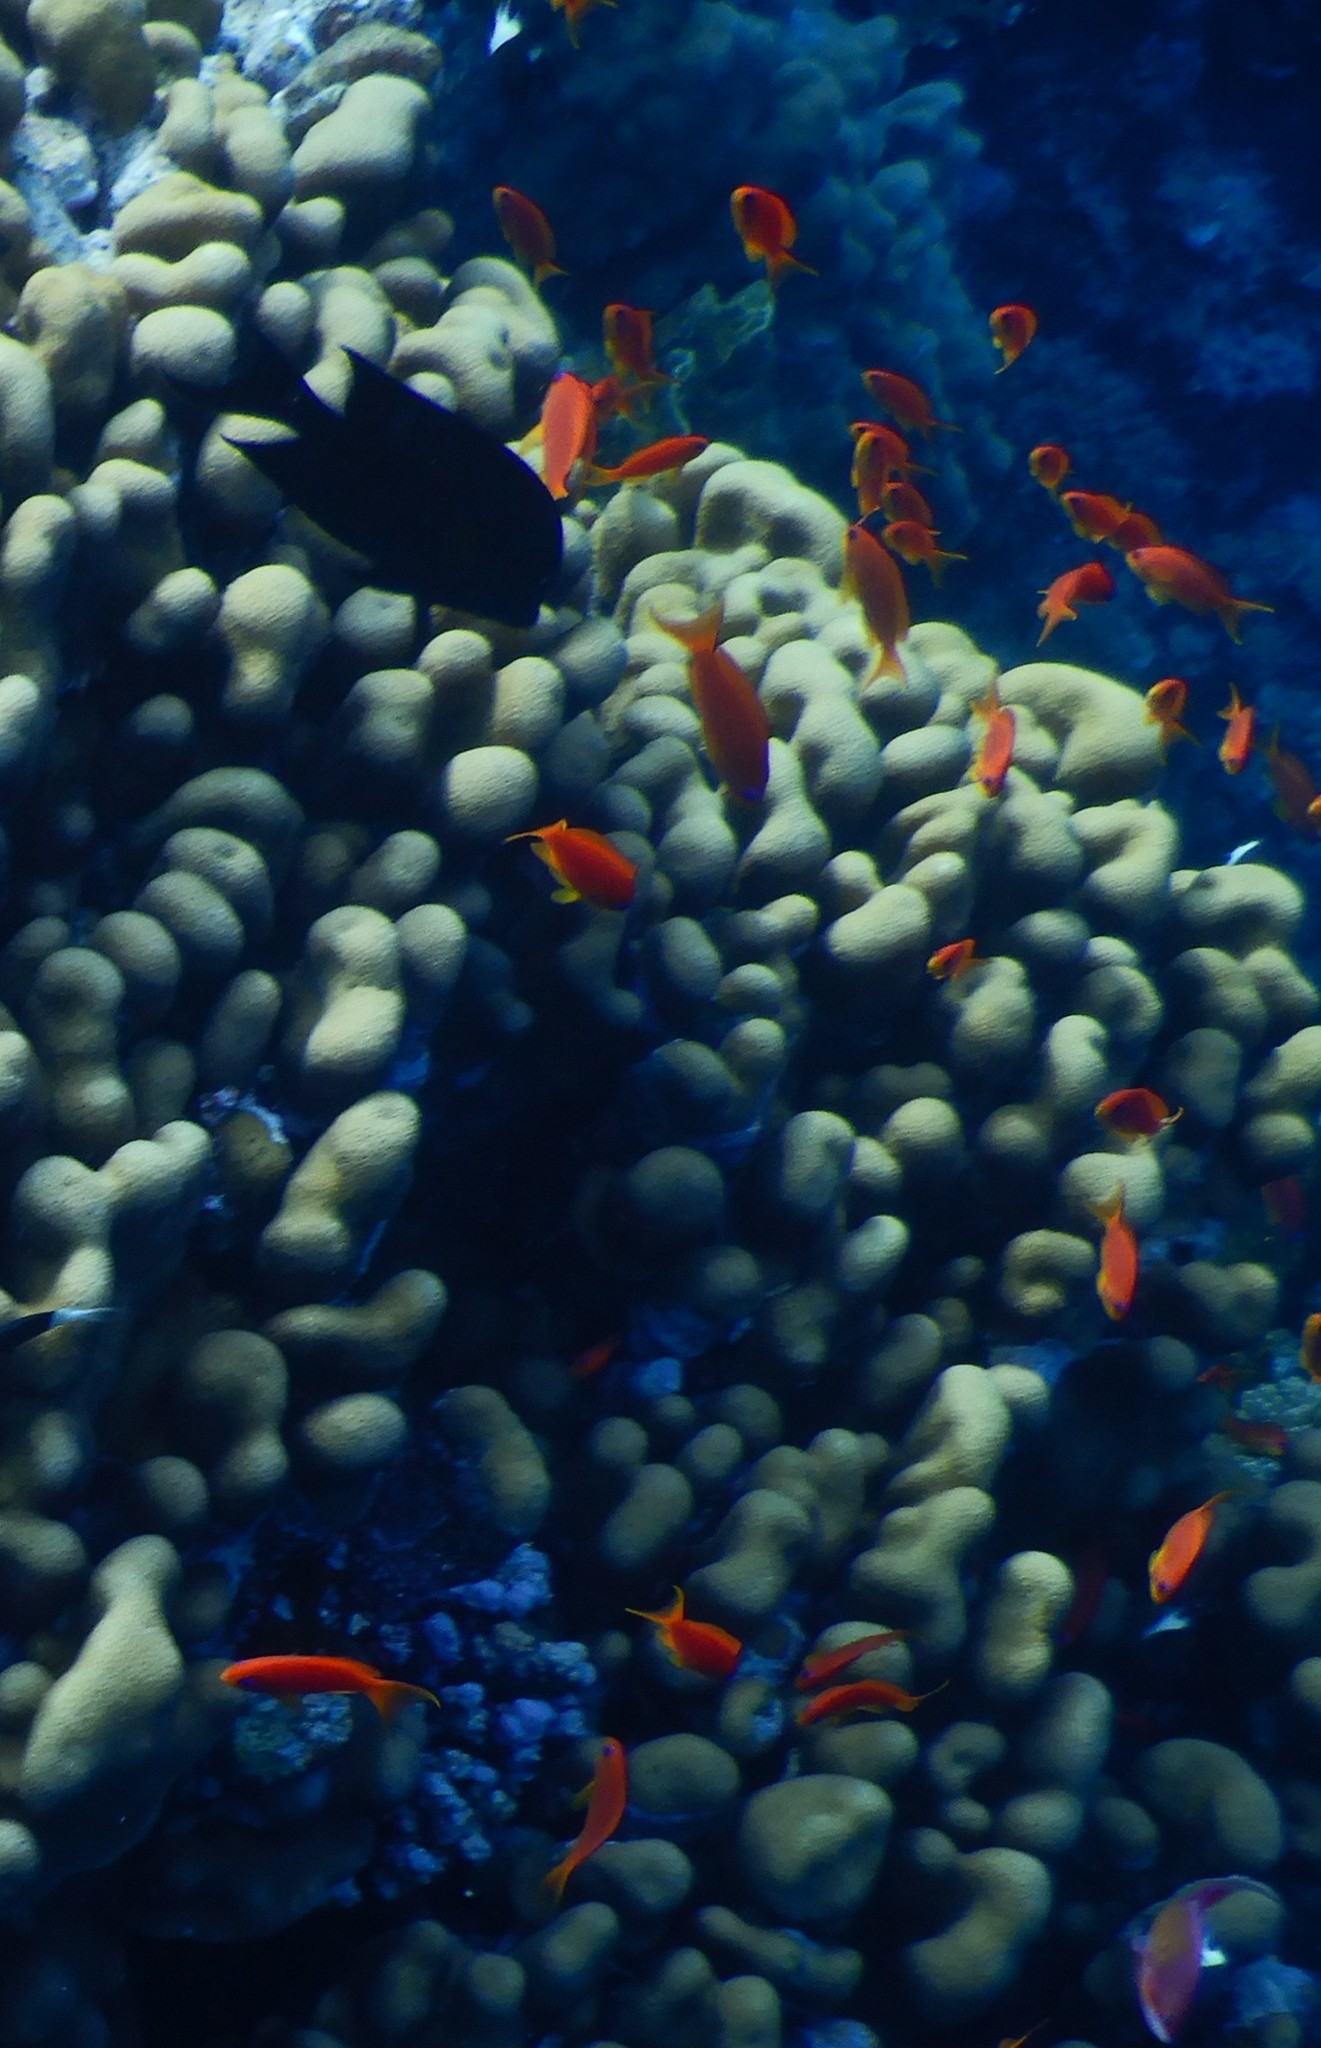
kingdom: Animalia
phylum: Chordata
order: Perciformes
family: Serranidae
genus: Pseudanthias
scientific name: Pseudanthias squamipinnis
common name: Scalefin anthias
